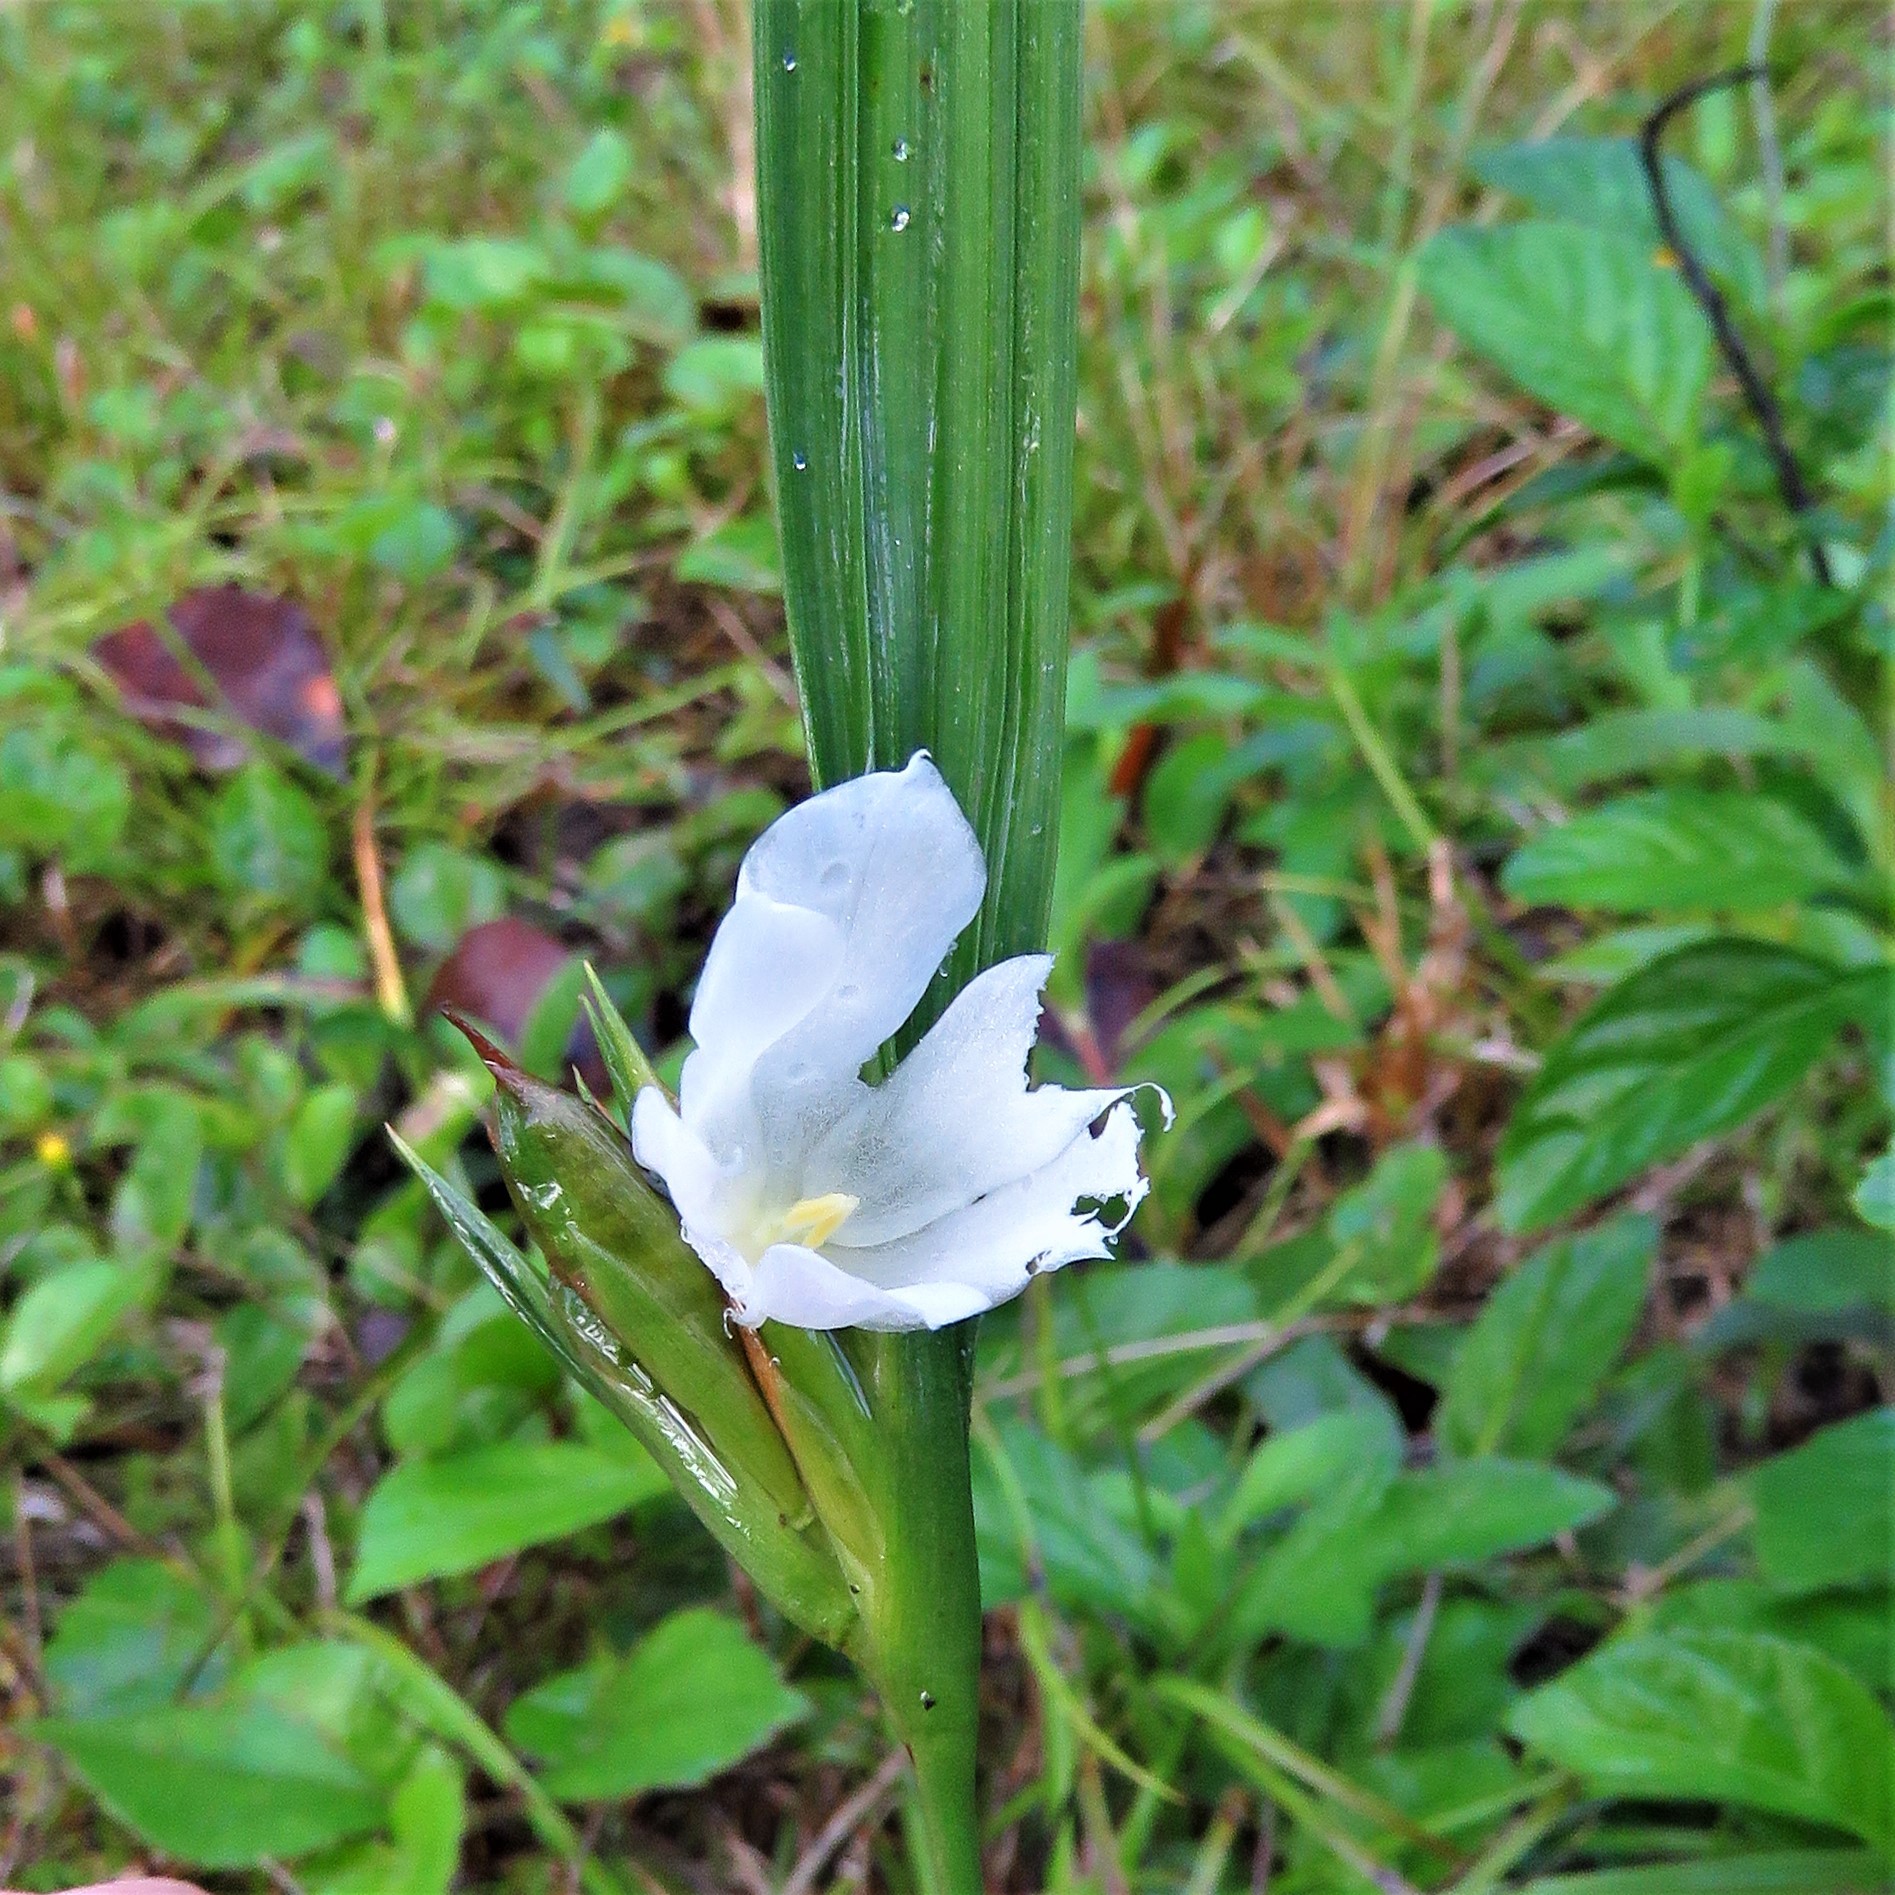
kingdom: Plantae
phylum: Tracheophyta
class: Liliopsida
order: Asparagales
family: Iridaceae
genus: Cipura
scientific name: Cipura campanulata
